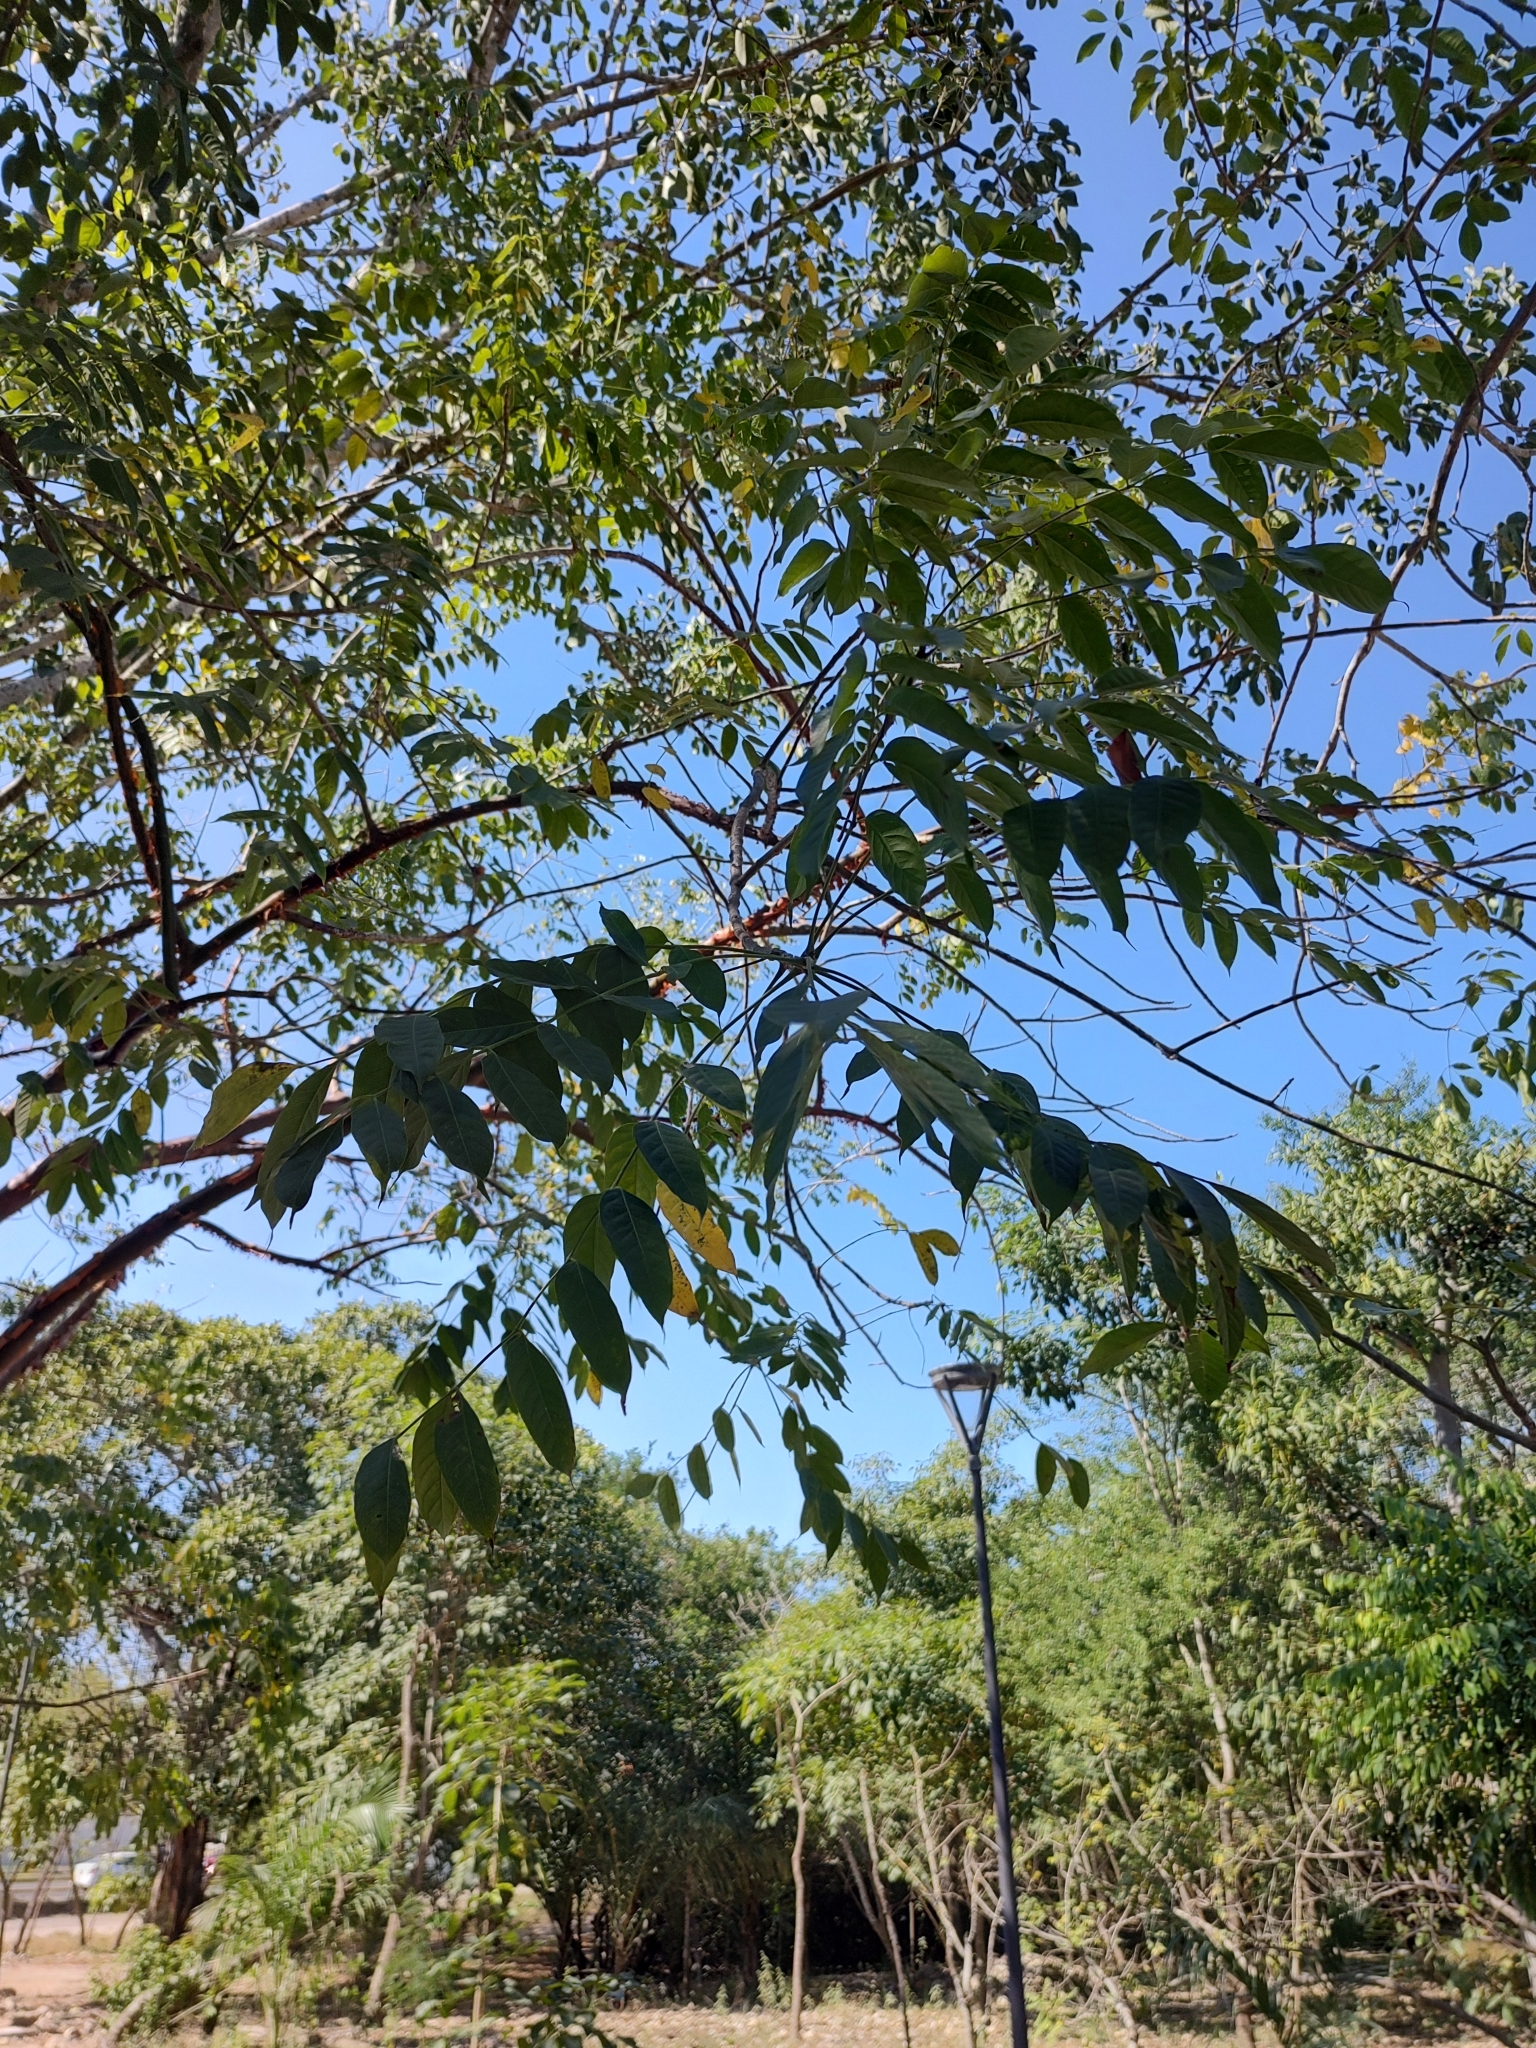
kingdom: Plantae
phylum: Tracheophyta
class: Magnoliopsida
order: Sapindales
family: Burseraceae
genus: Bursera
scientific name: Bursera simaruba
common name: Turpentine tree
